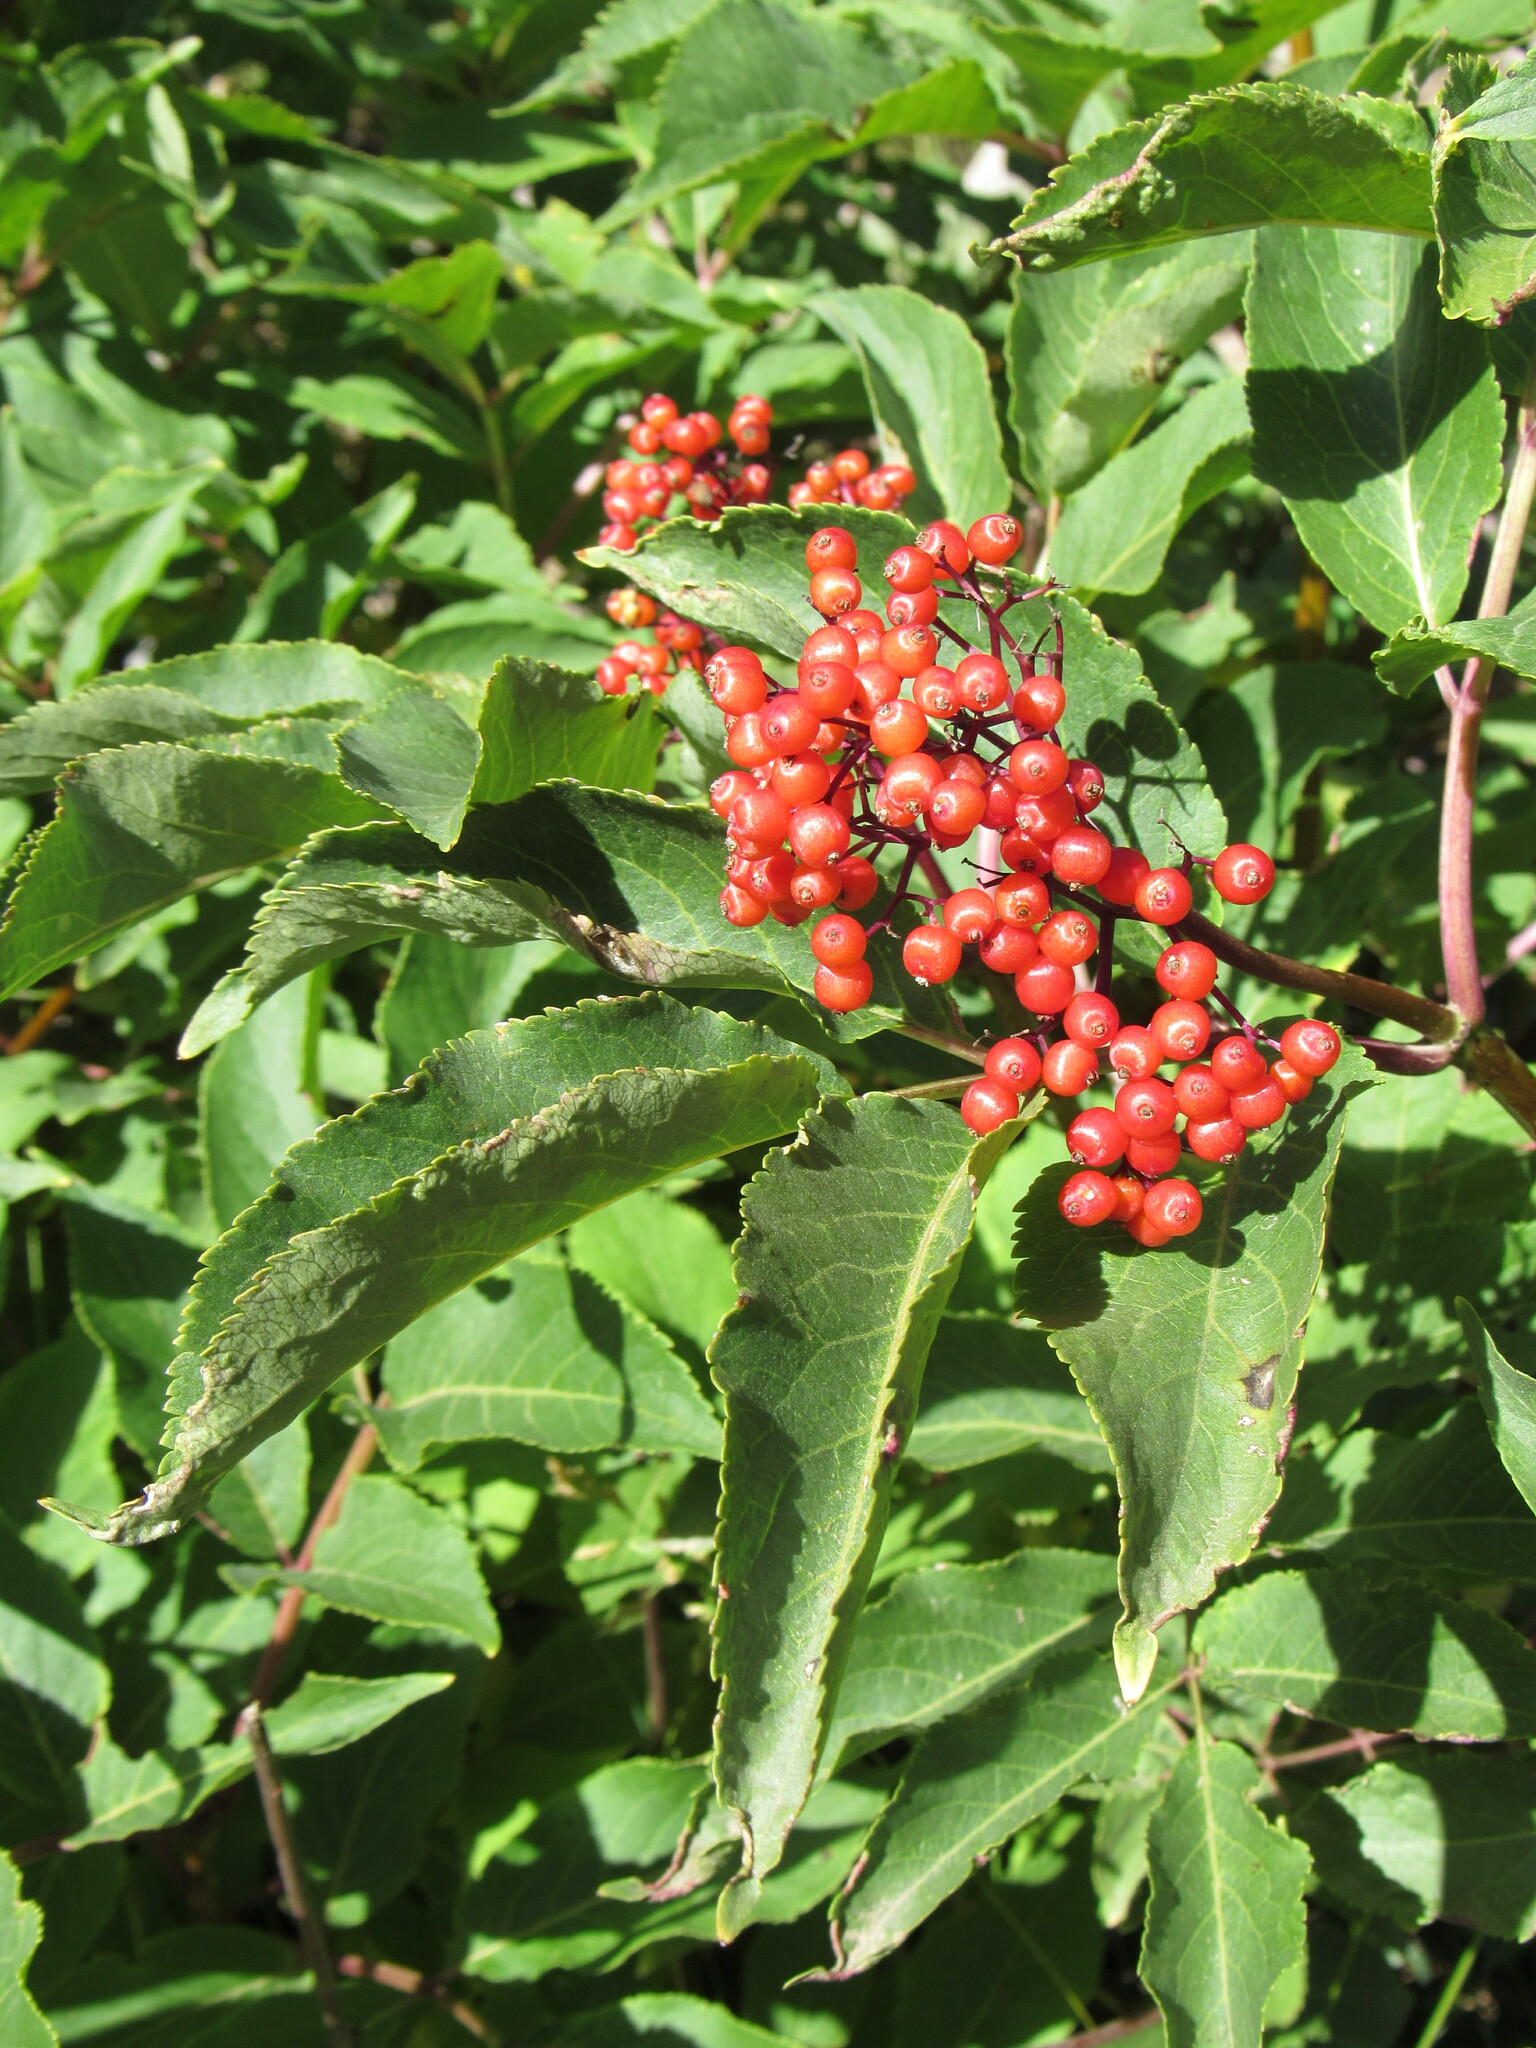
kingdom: Plantae
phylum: Tracheophyta
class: Magnoliopsida
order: Dipsacales
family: Viburnaceae
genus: Sambucus
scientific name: Sambucus racemosa
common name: Red-berried elder
